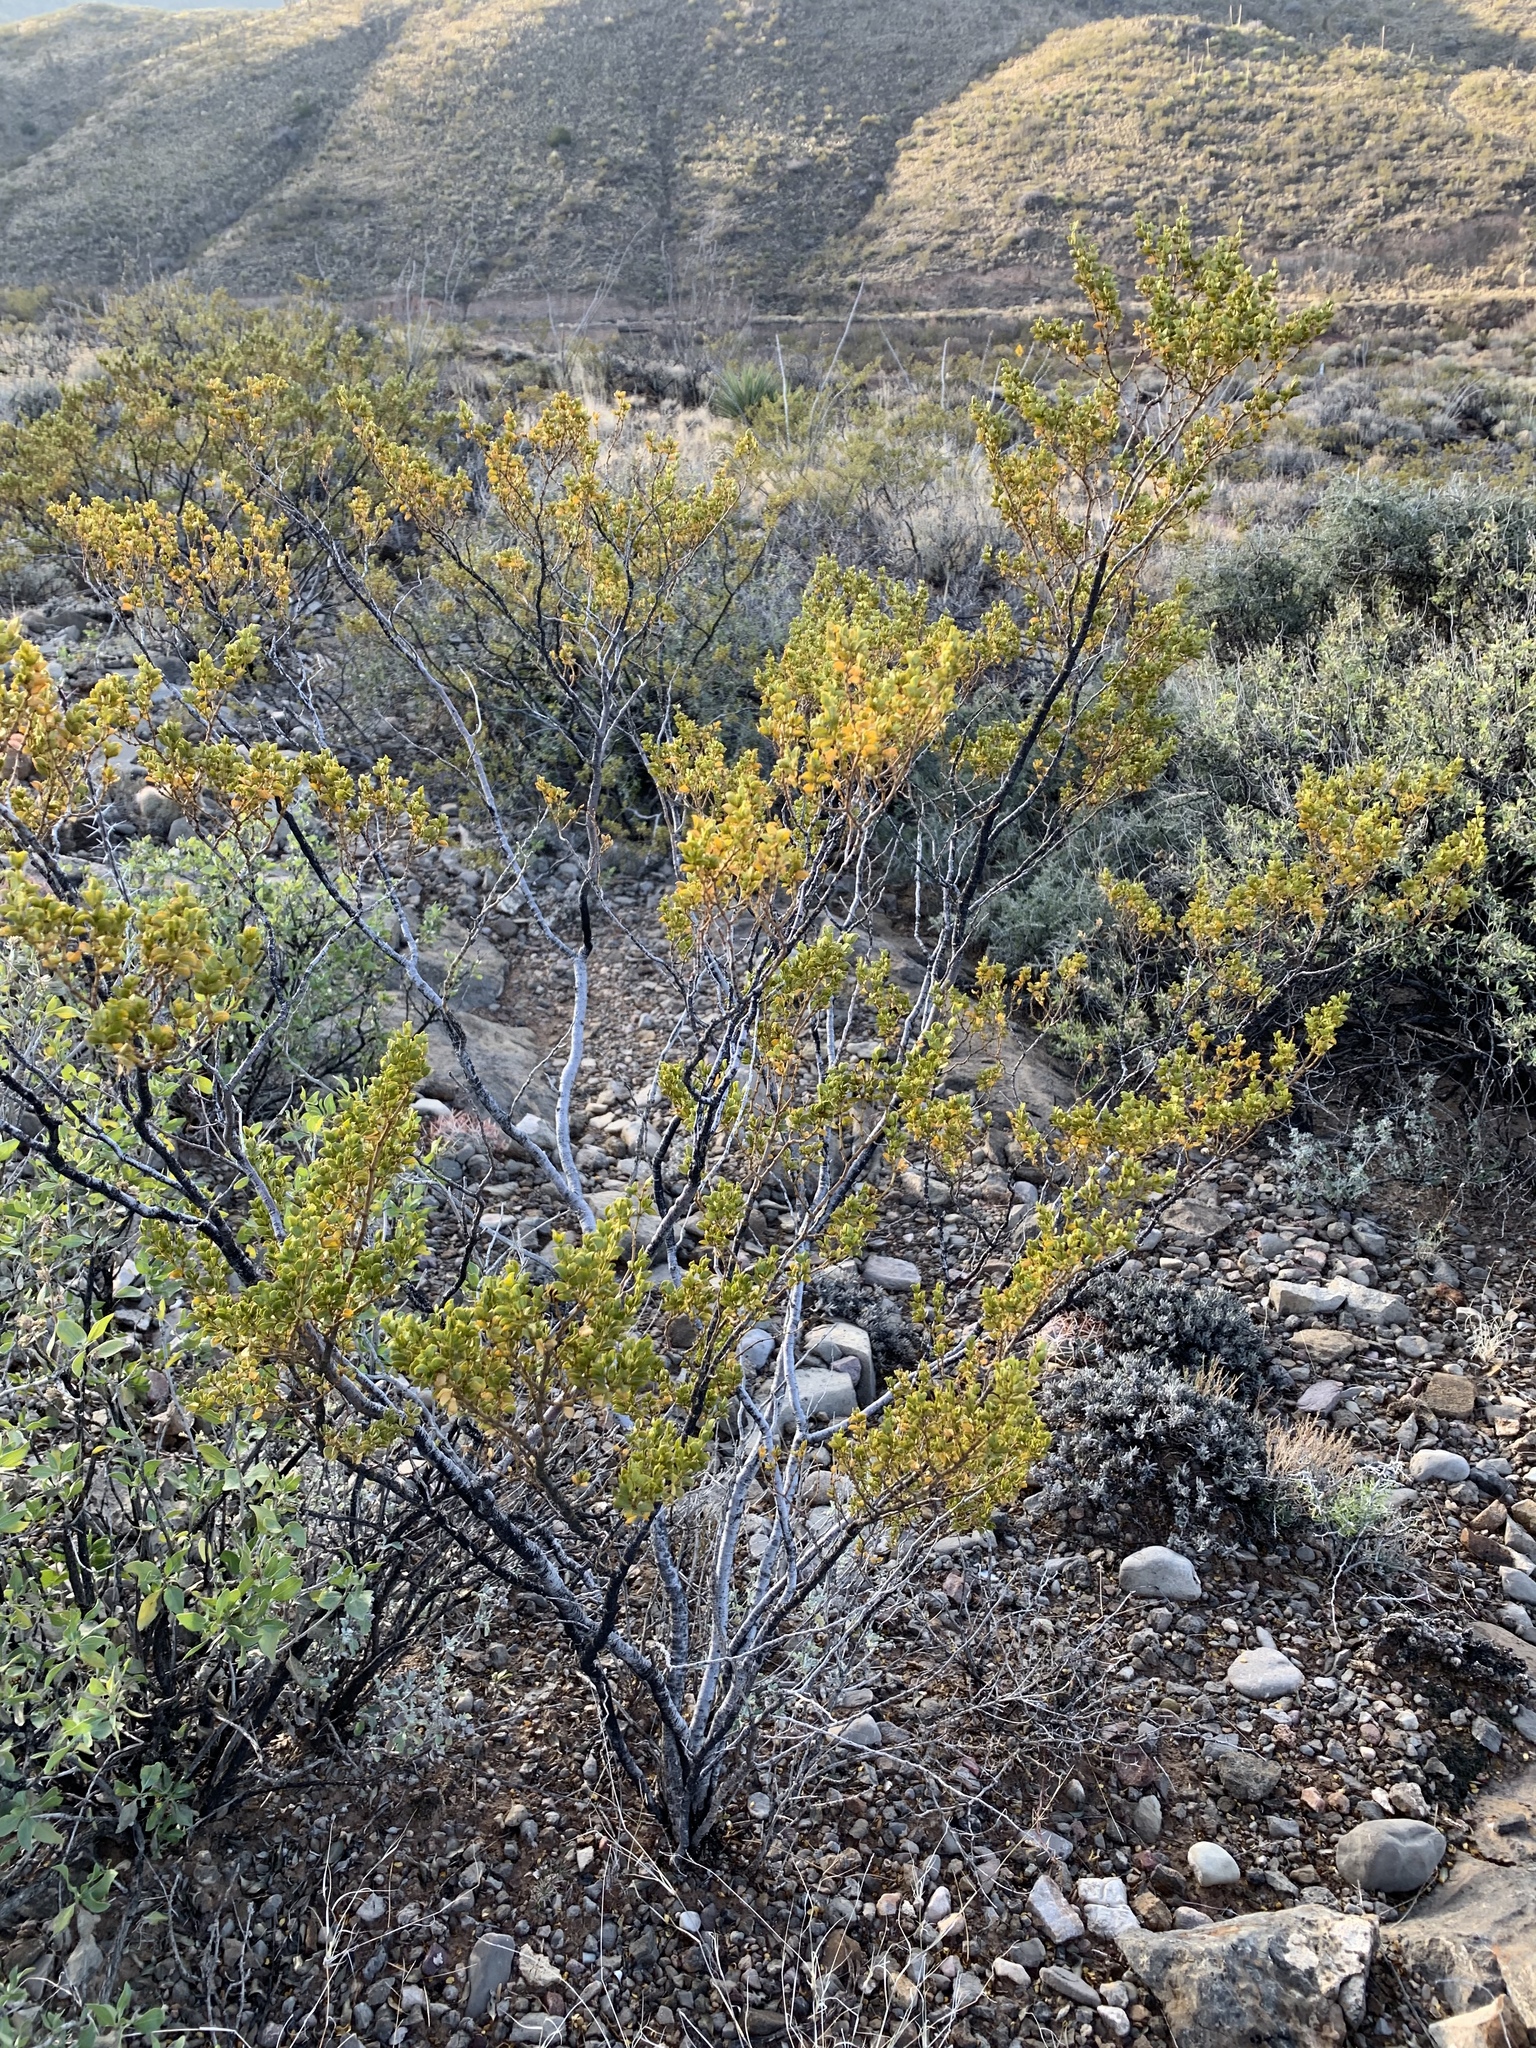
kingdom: Plantae
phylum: Tracheophyta
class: Magnoliopsida
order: Zygophyllales
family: Zygophyllaceae
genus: Larrea
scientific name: Larrea tridentata
